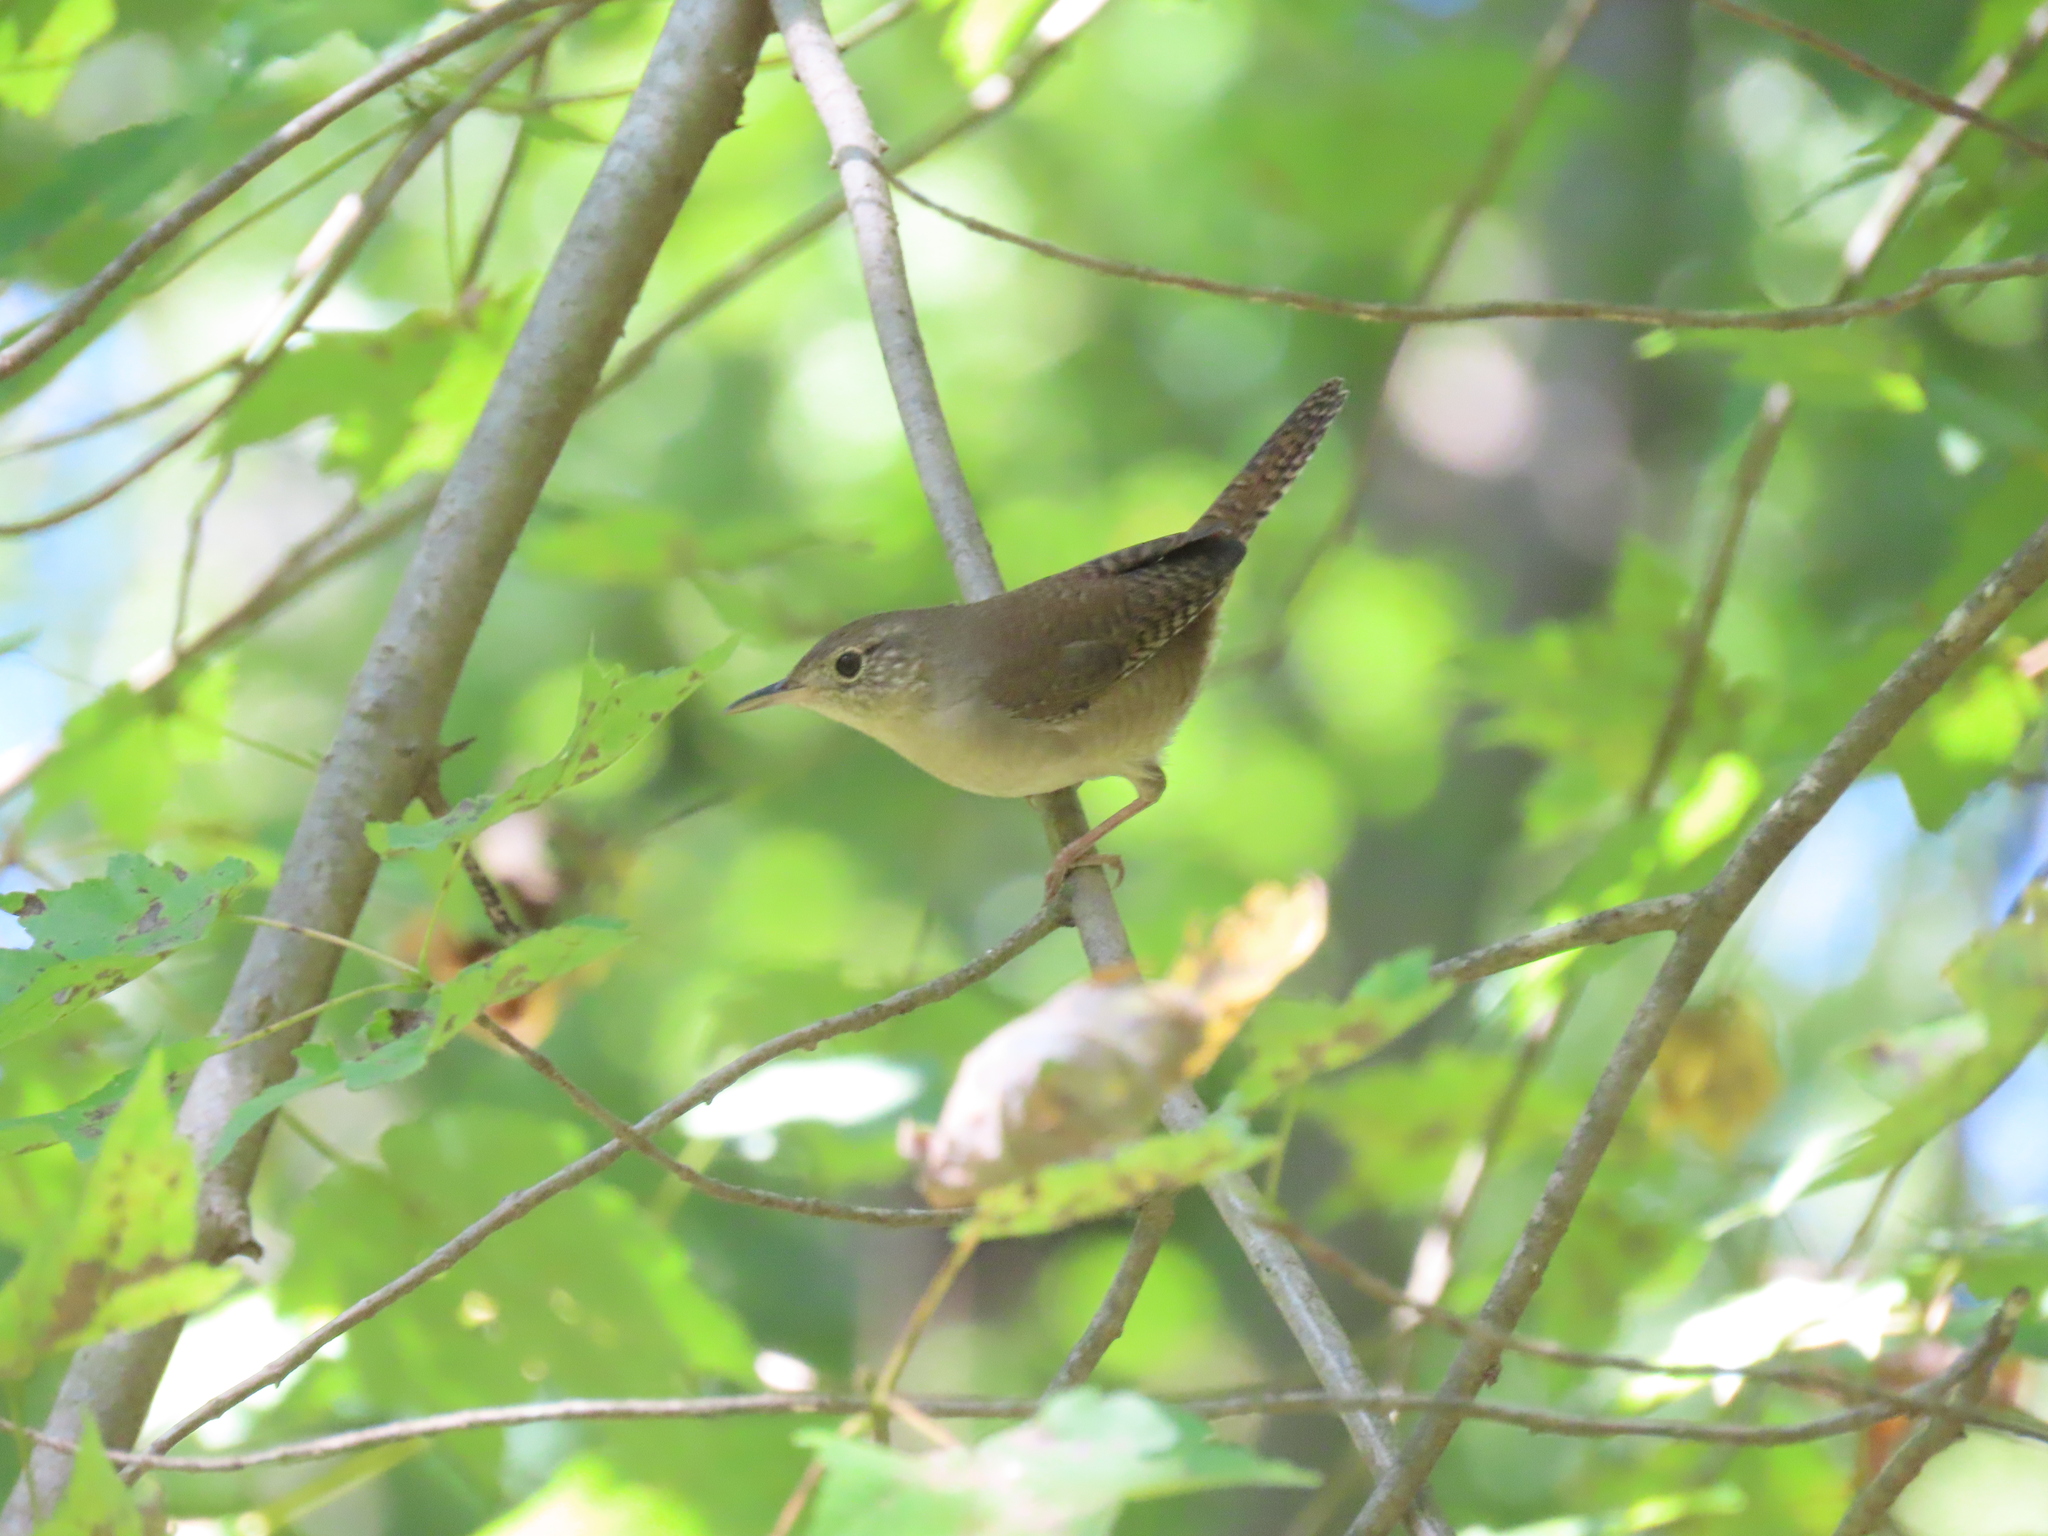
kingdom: Animalia
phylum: Chordata
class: Aves
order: Passeriformes
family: Troglodytidae
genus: Troglodytes
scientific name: Troglodytes aedon
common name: House wren
